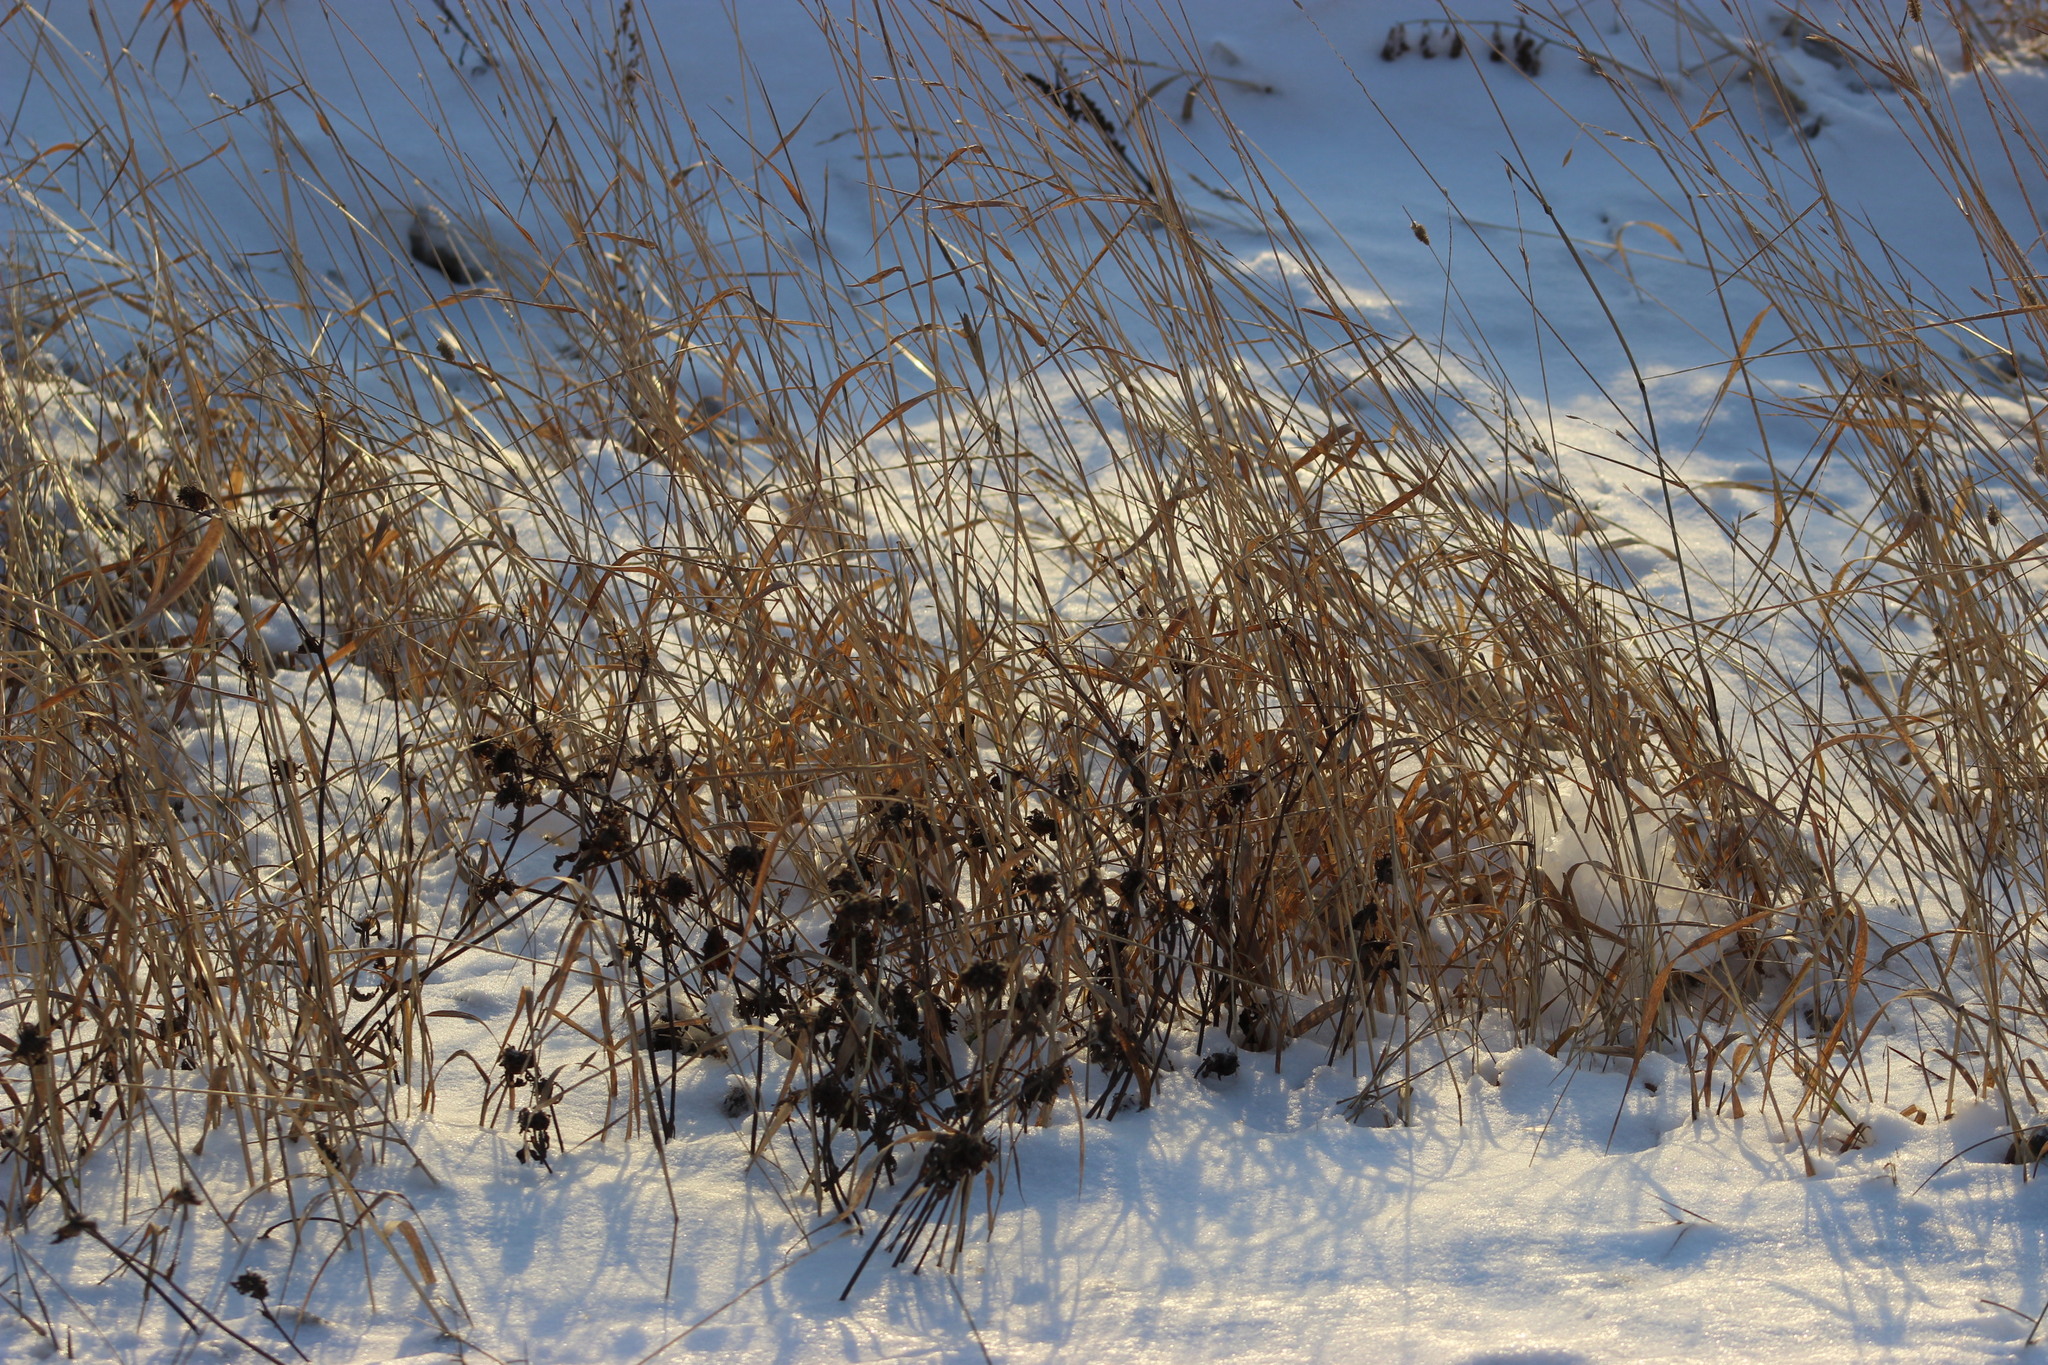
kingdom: Plantae
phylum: Tracheophyta
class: Liliopsida
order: Poales
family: Poaceae
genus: Calamagrostis
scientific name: Calamagrostis purpurea
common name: Scandinavian small-reed
